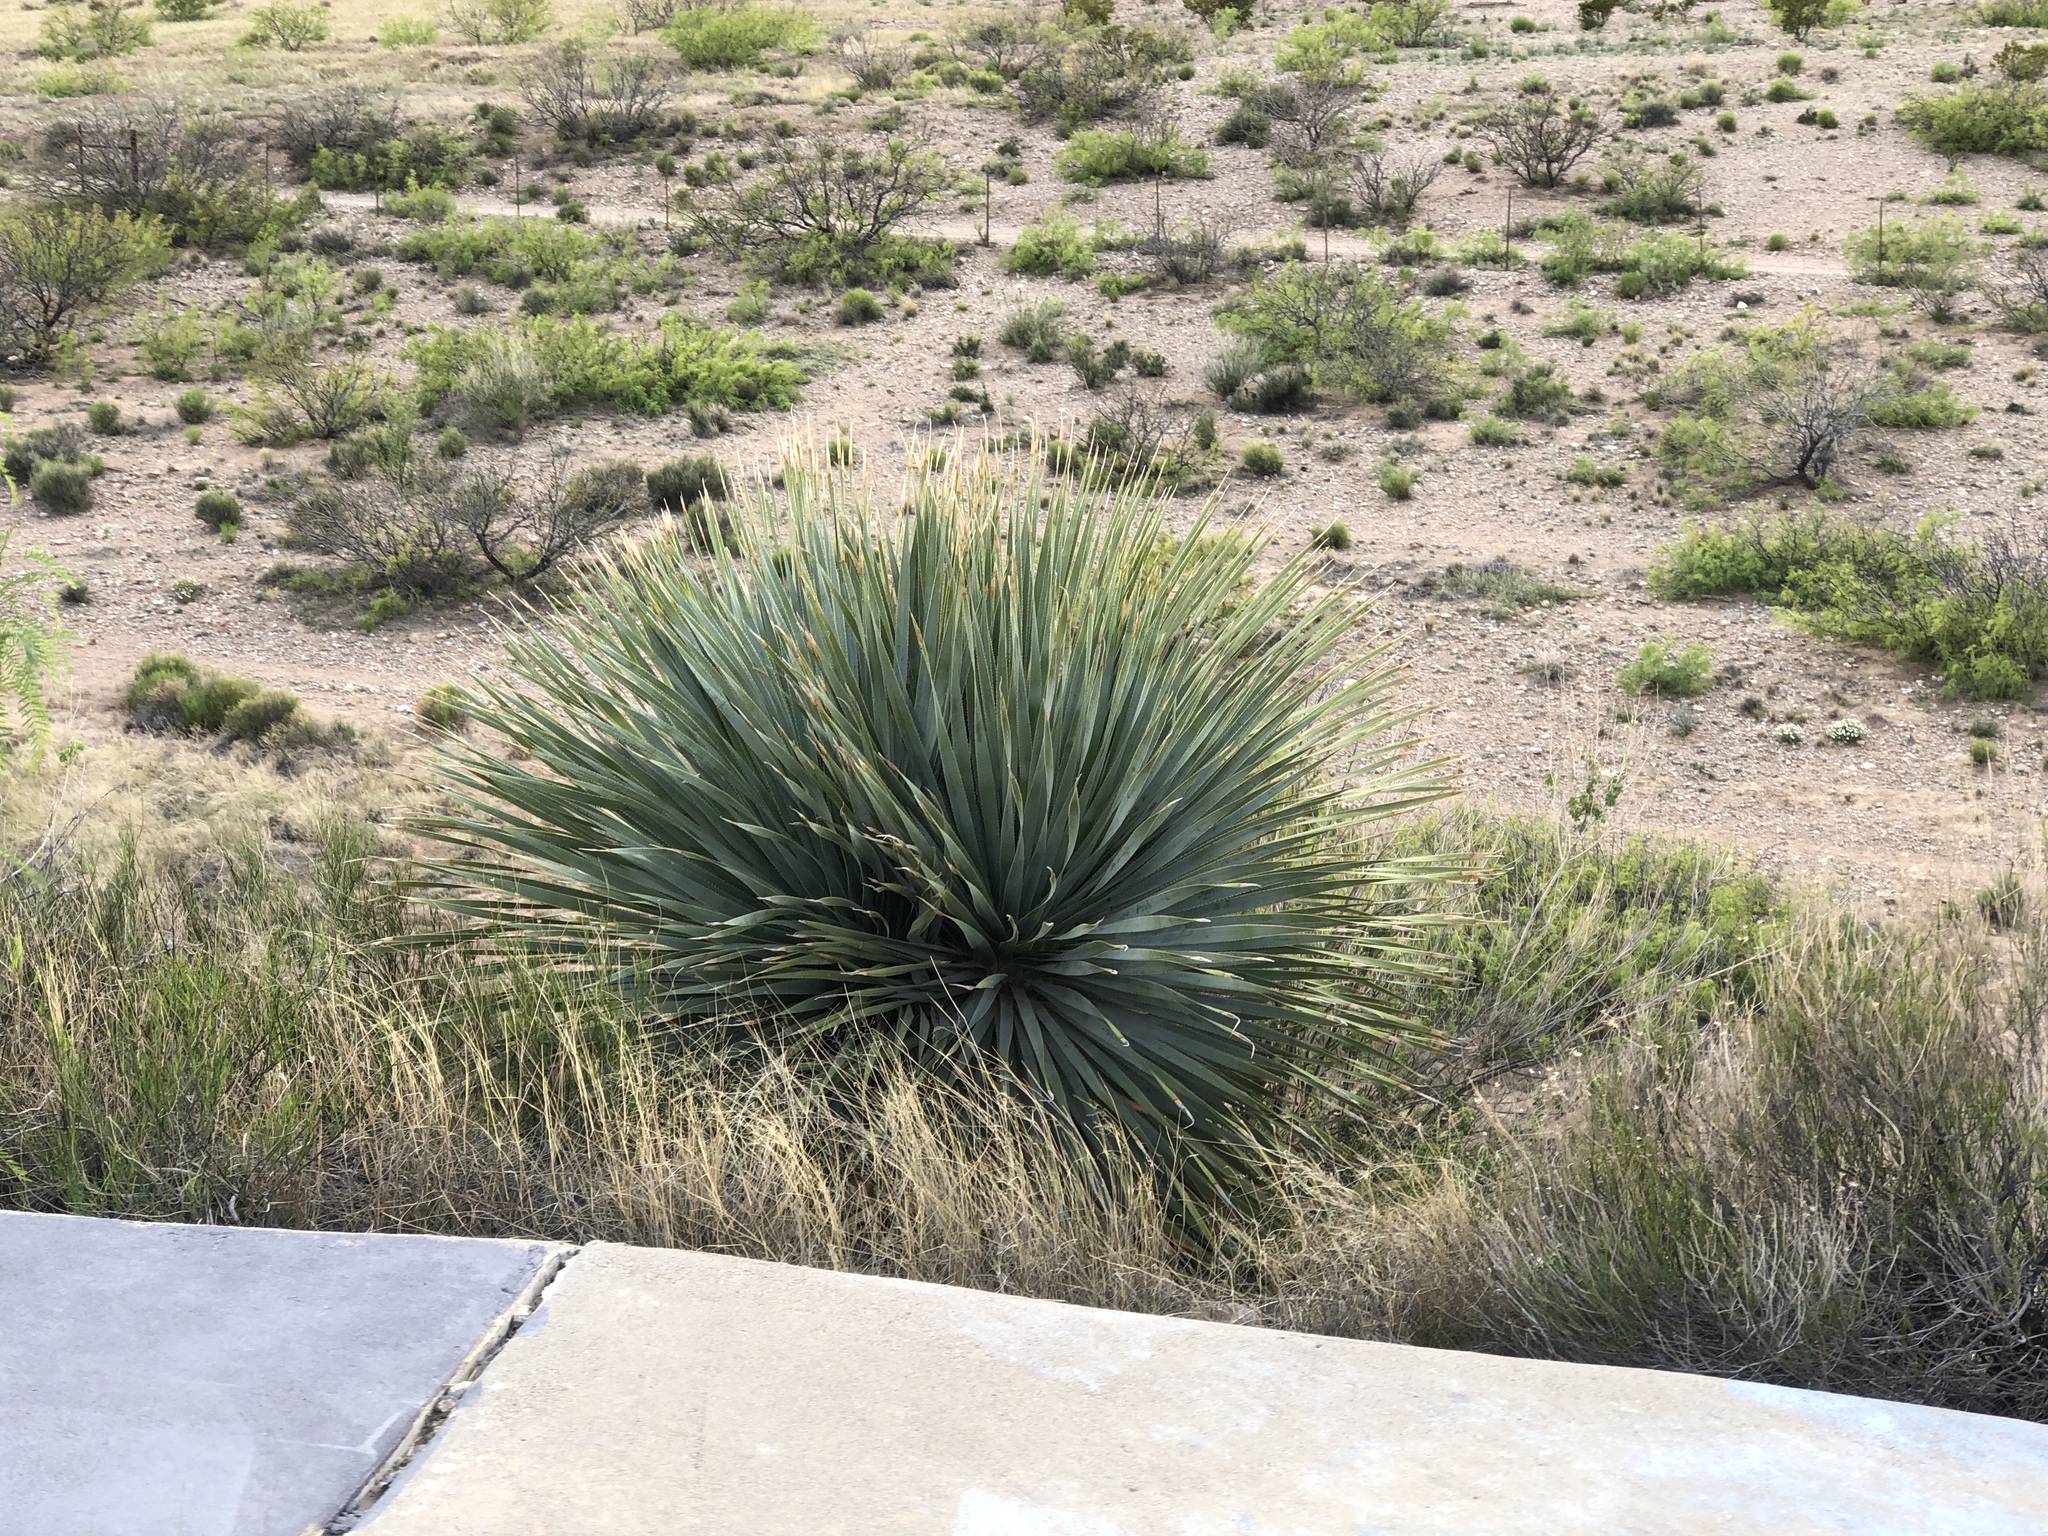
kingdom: Plantae
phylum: Tracheophyta
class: Liliopsida
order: Asparagales
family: Asparagaceae
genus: Dasylirion
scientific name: Dasylirion wheeleri
